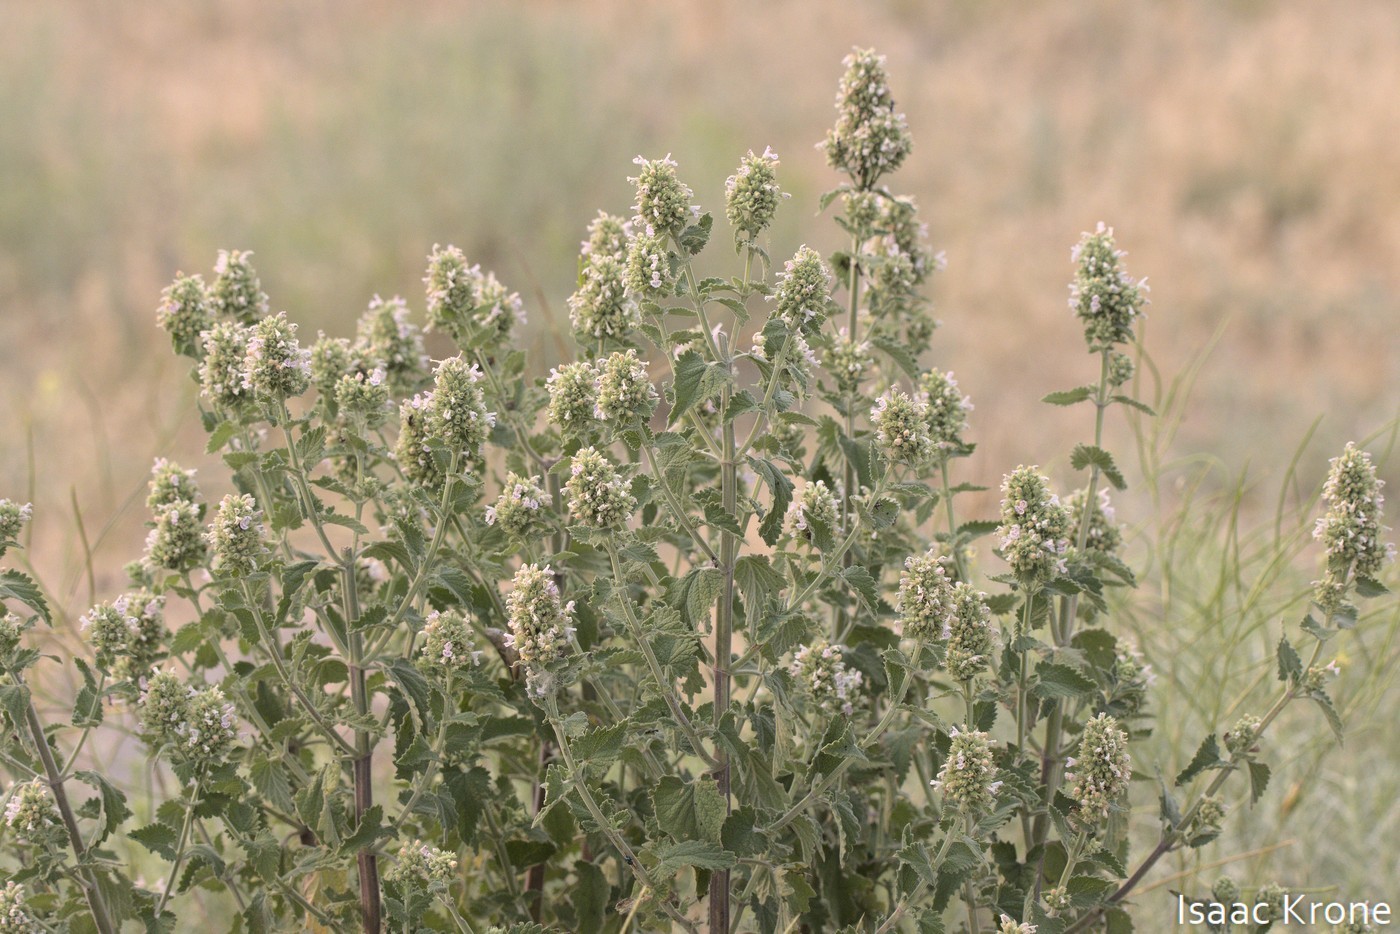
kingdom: Plantae
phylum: Tracheophyta
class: Magnoliopsida
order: Lamiales
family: Lamiaceae
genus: Nepeta
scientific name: Nepeta cataria
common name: Catnip
